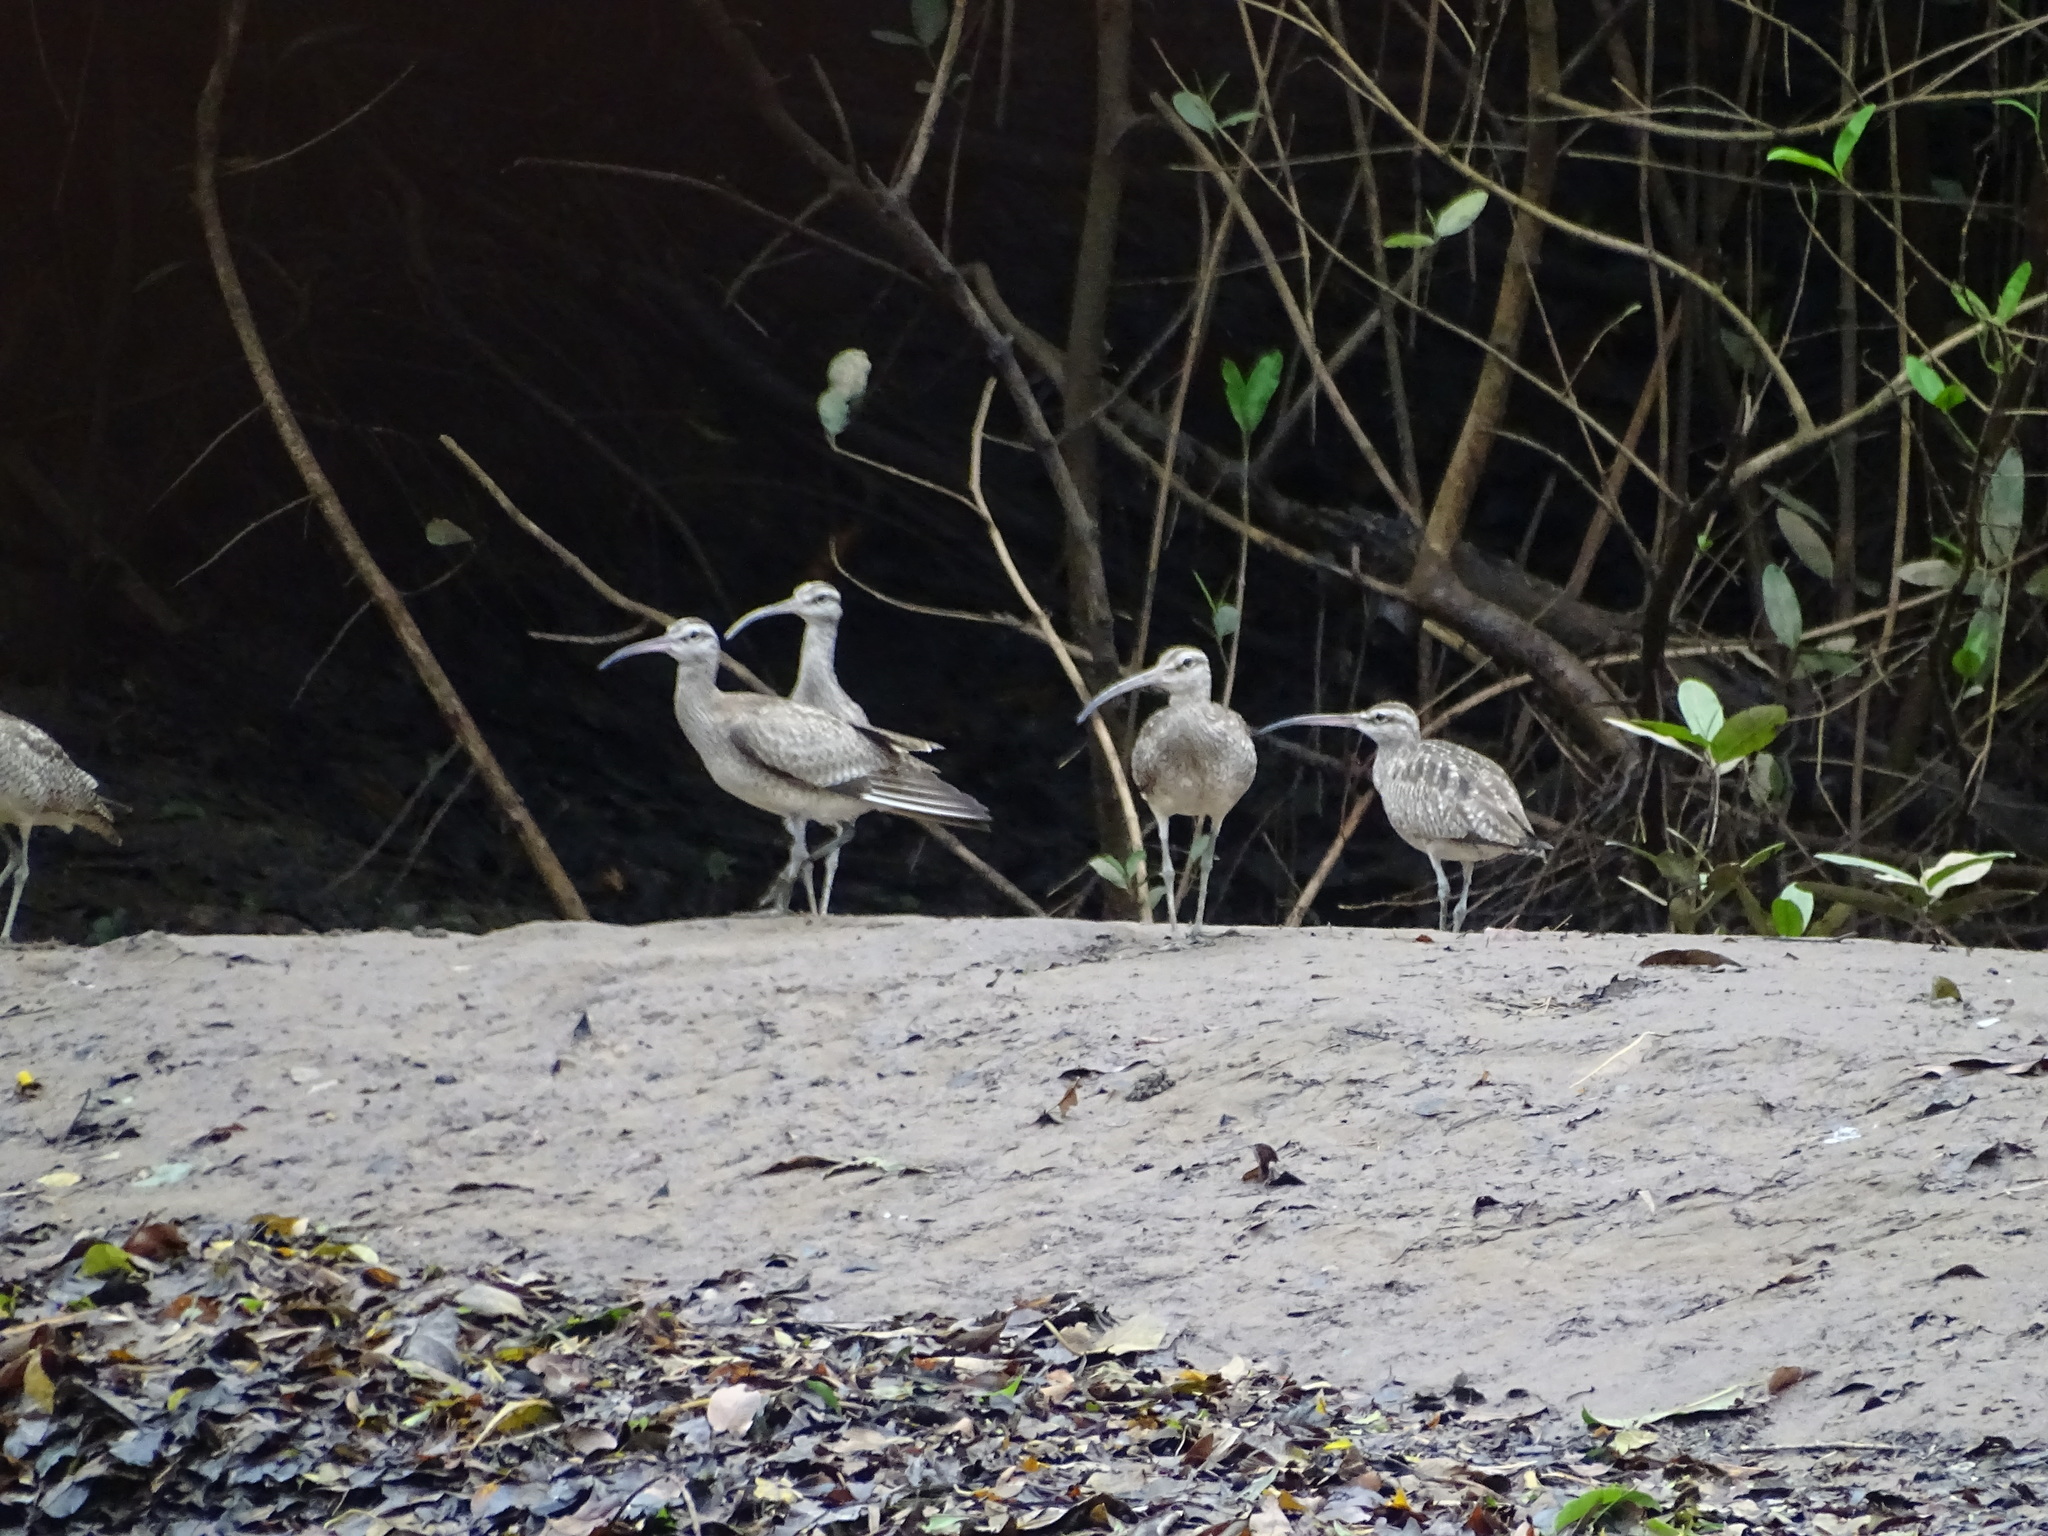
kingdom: Animalia
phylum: Chordata
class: Aves
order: Charadriiformes
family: Scolopacidae
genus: Numenius
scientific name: Numenius phaeopus
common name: Whimbrel
